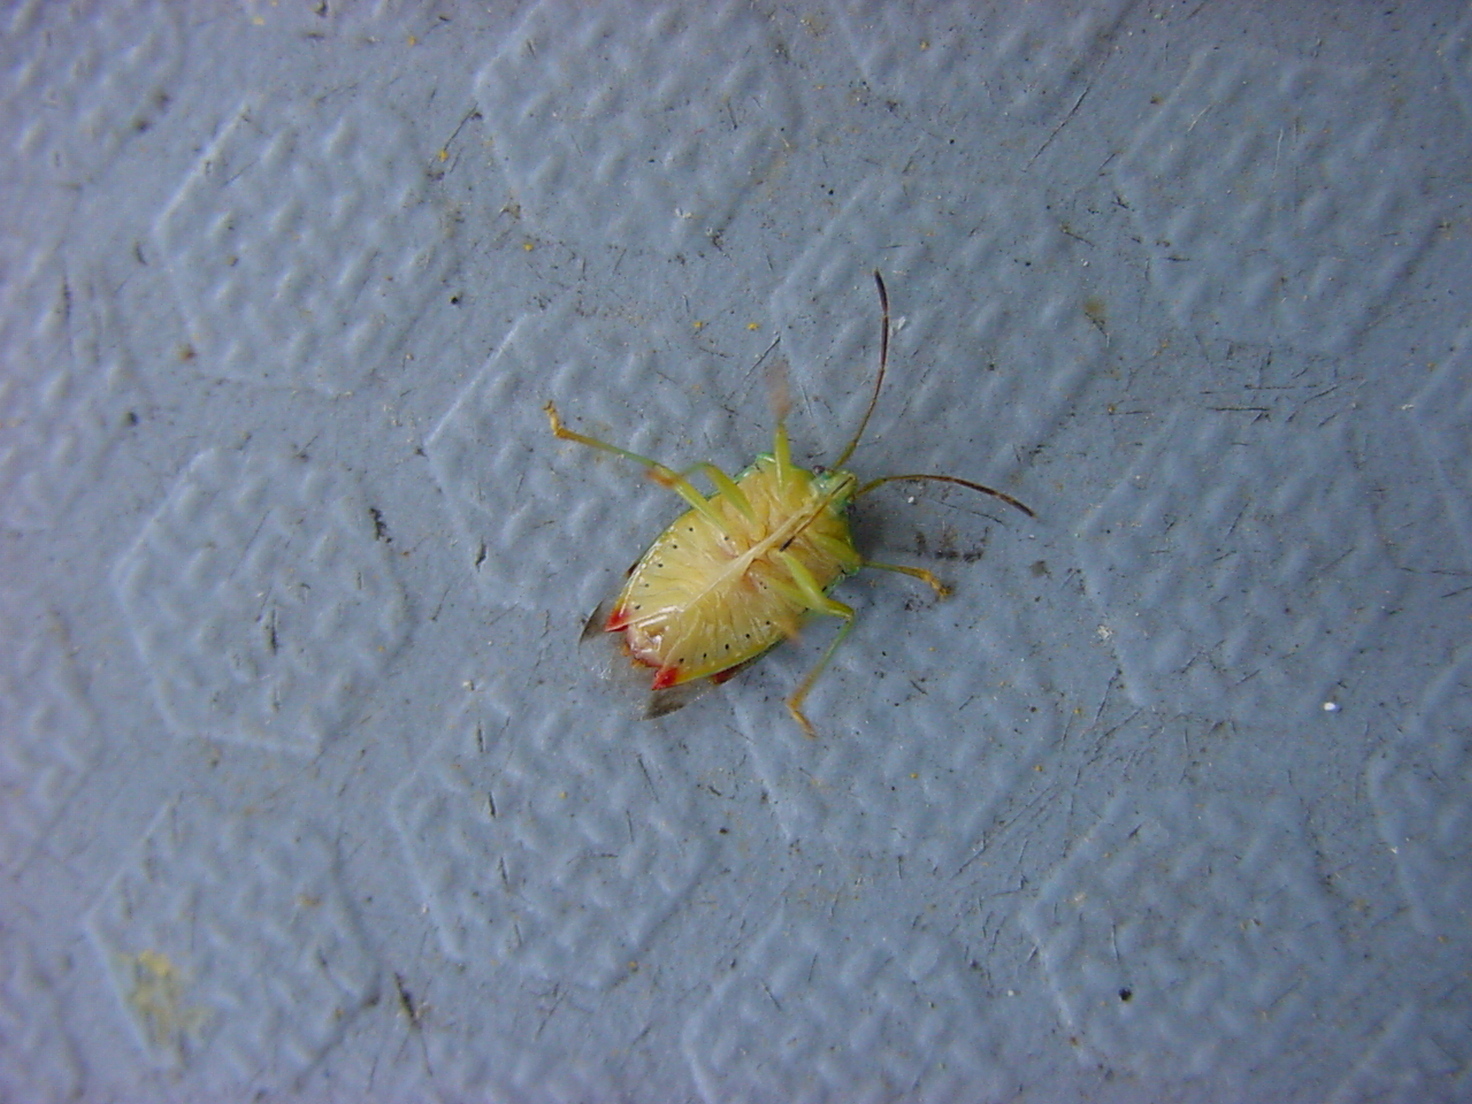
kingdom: Animalia
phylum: Arthropoda
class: Insecta
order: Hemiptera
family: Acanthosomatidae
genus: Elasmostethus
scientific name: Elasmostethus interstinctus
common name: Birch shieldbug
